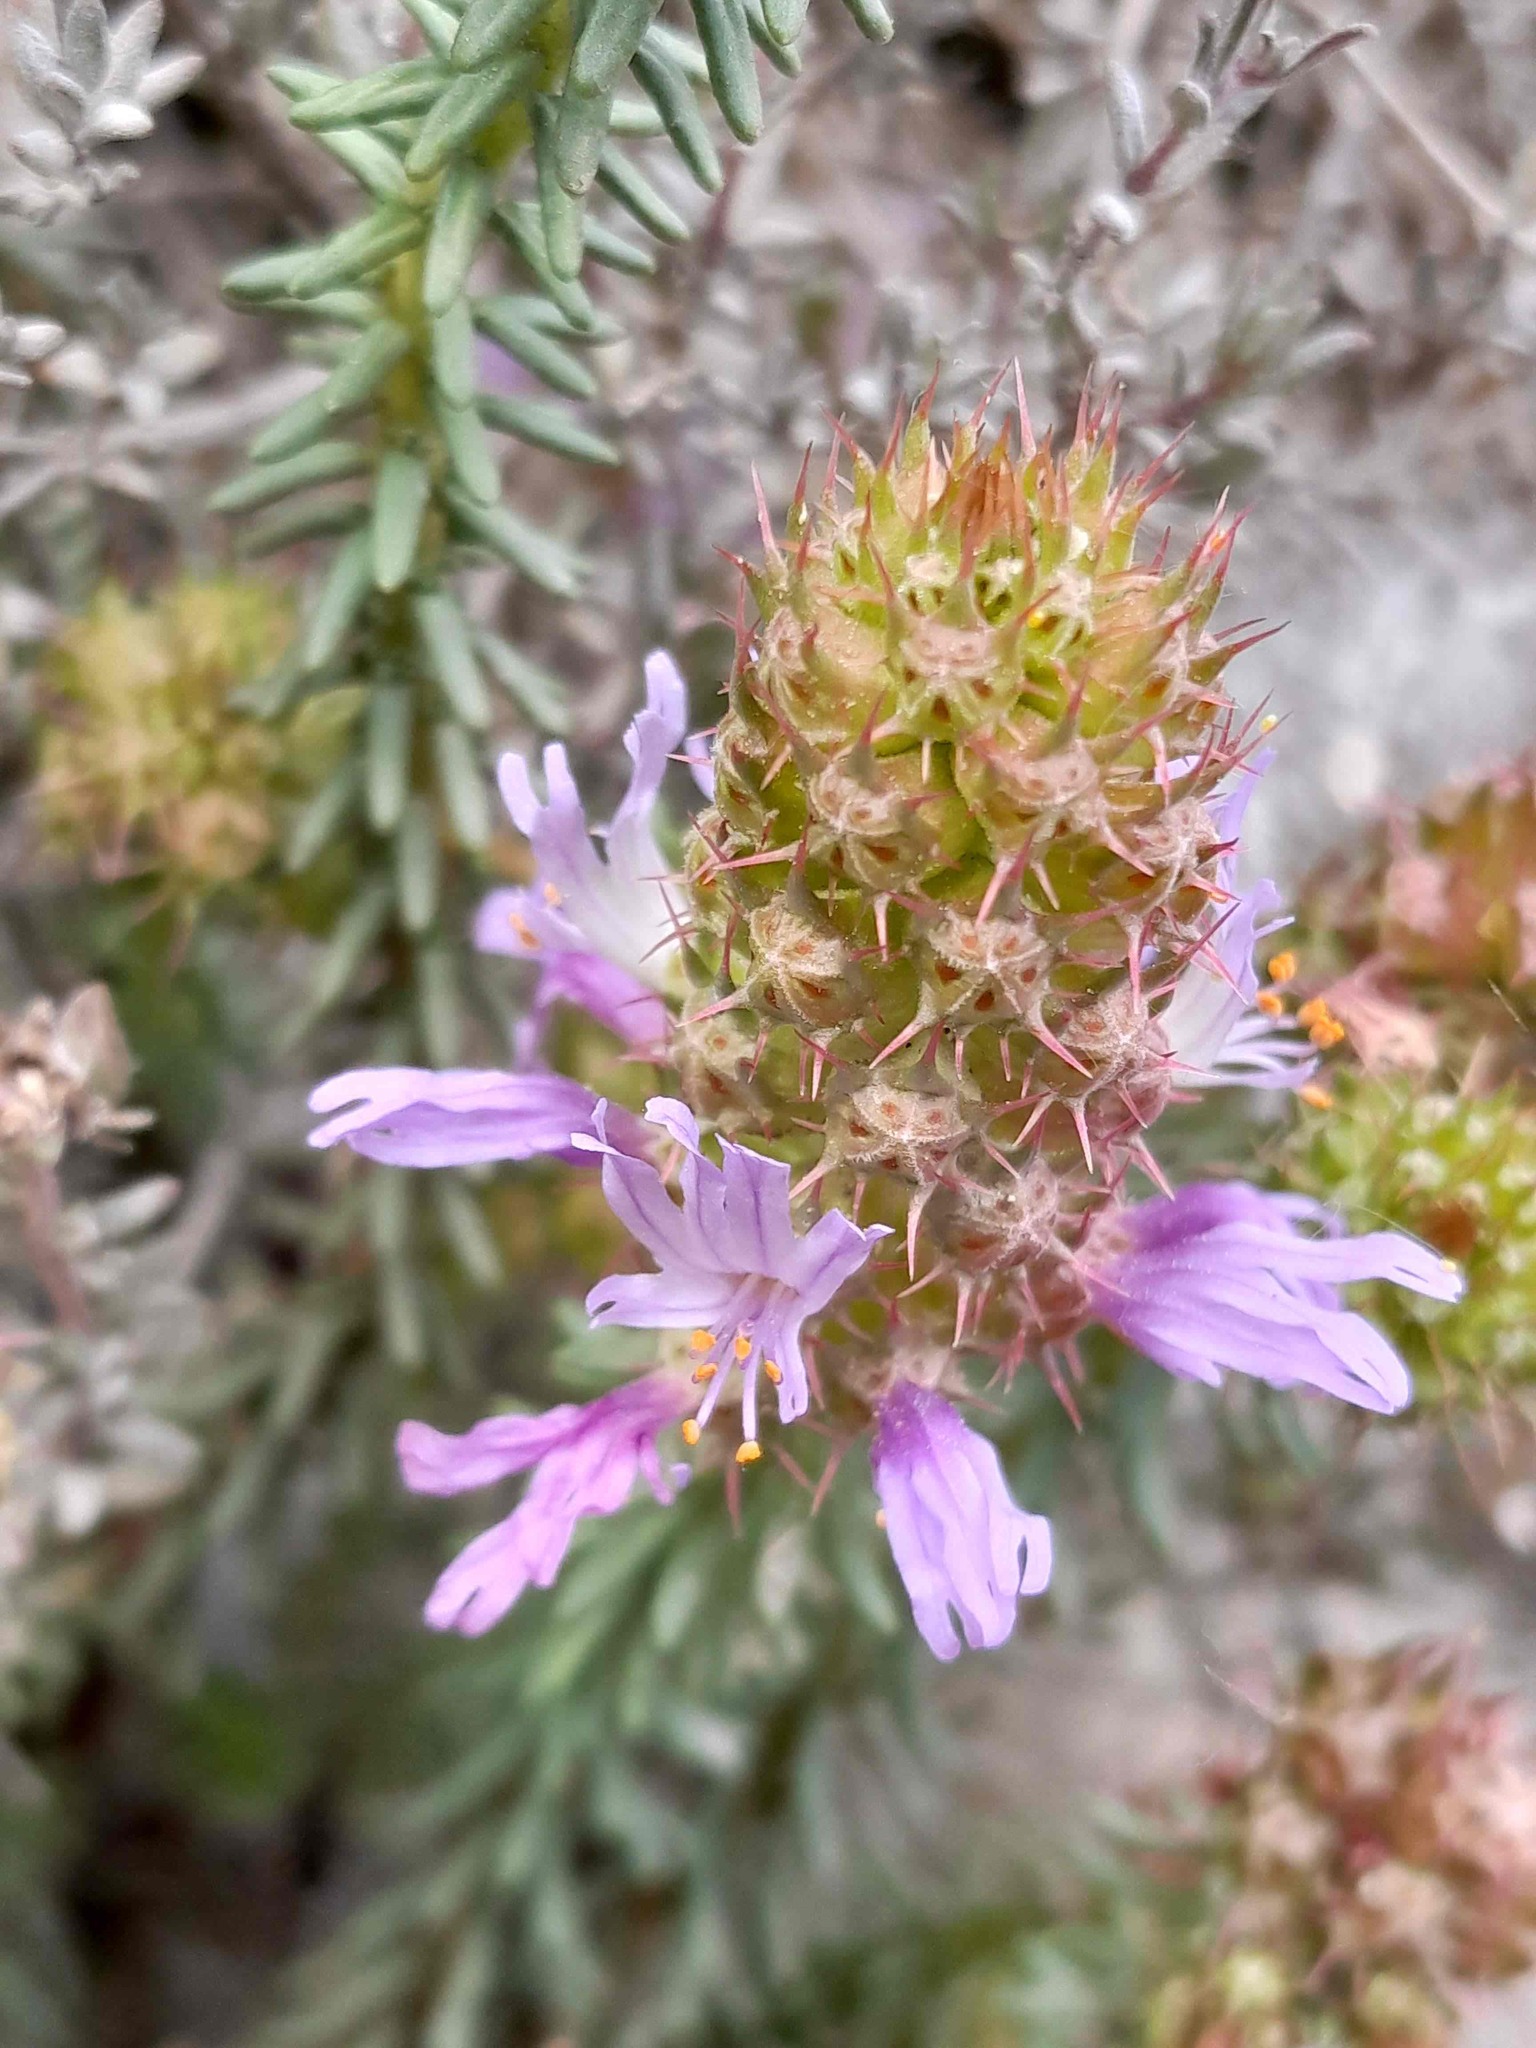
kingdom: Plantae
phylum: Tracheophyta
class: Magnoliopsida
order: Ericales
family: Primulaceae
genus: Coris
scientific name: Coris monspeliensis
